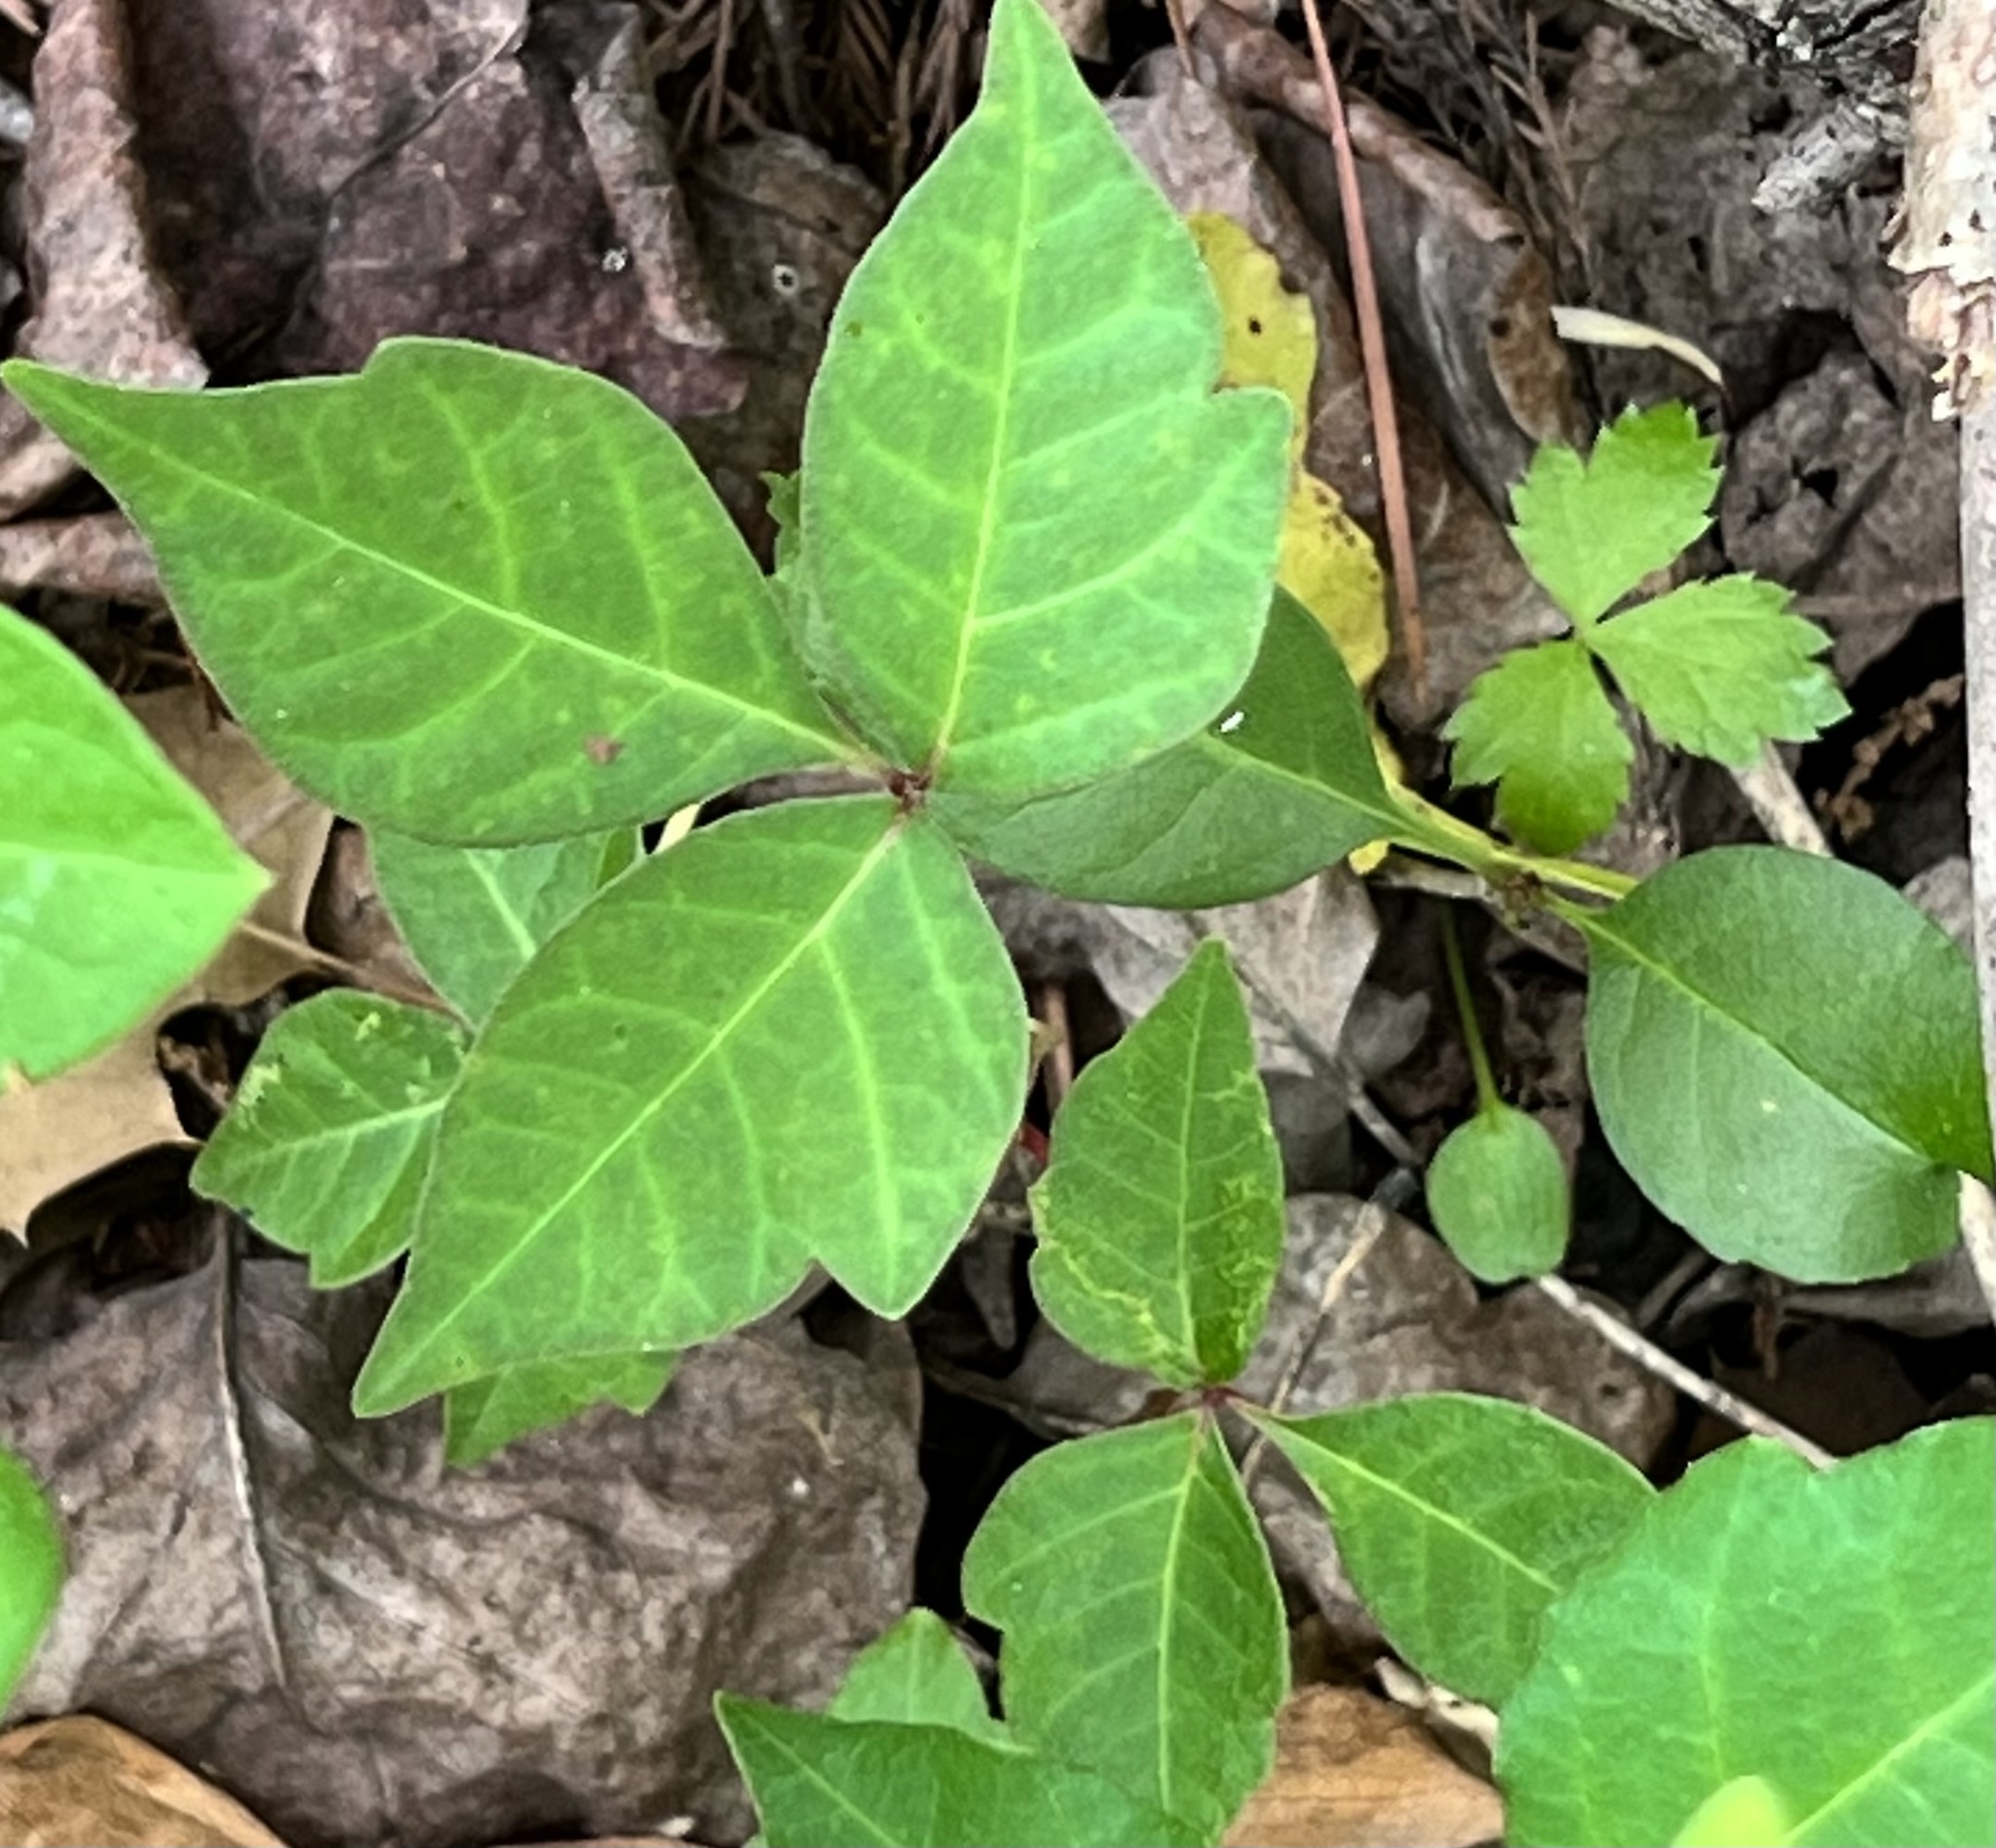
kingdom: Plantae
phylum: Tracheophyta
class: Magnoliopsida
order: Sapindales
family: Anacardiaceae
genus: Toxicodendron
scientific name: Toxicodendron radicans
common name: Poison ivy
